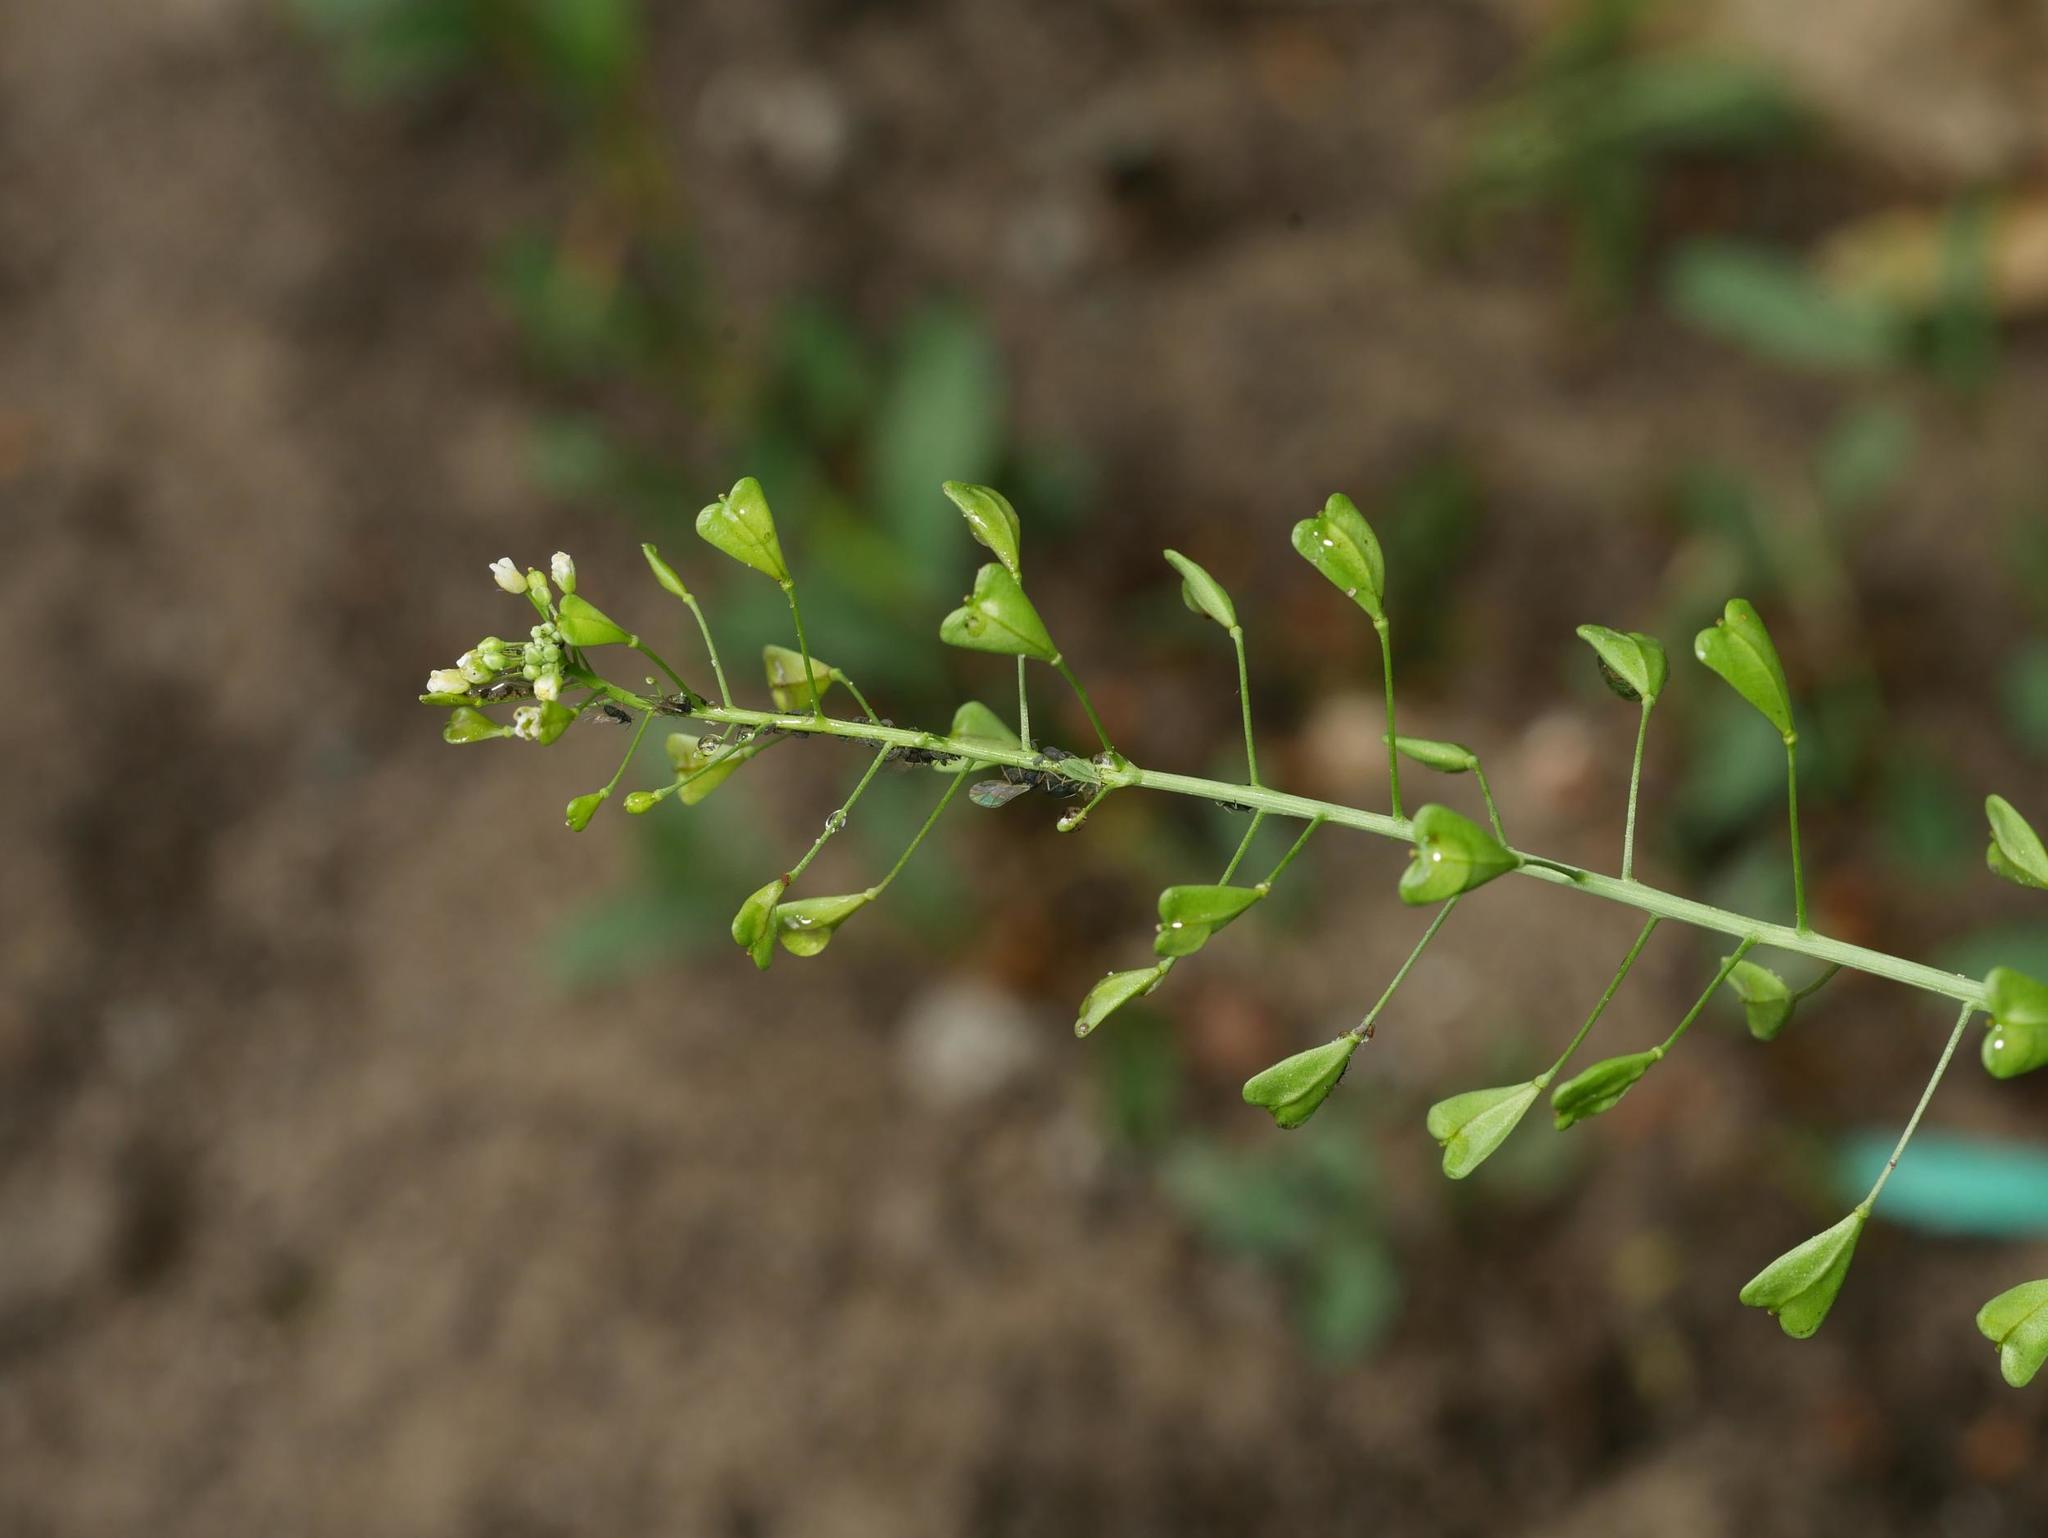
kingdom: Plantae
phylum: Tracheophyta
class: Magnoliopsida
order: Brassicales
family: Brassicaceae
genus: Capsella
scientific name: Capsella bursa-pastoris
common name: Shepherd's purse
